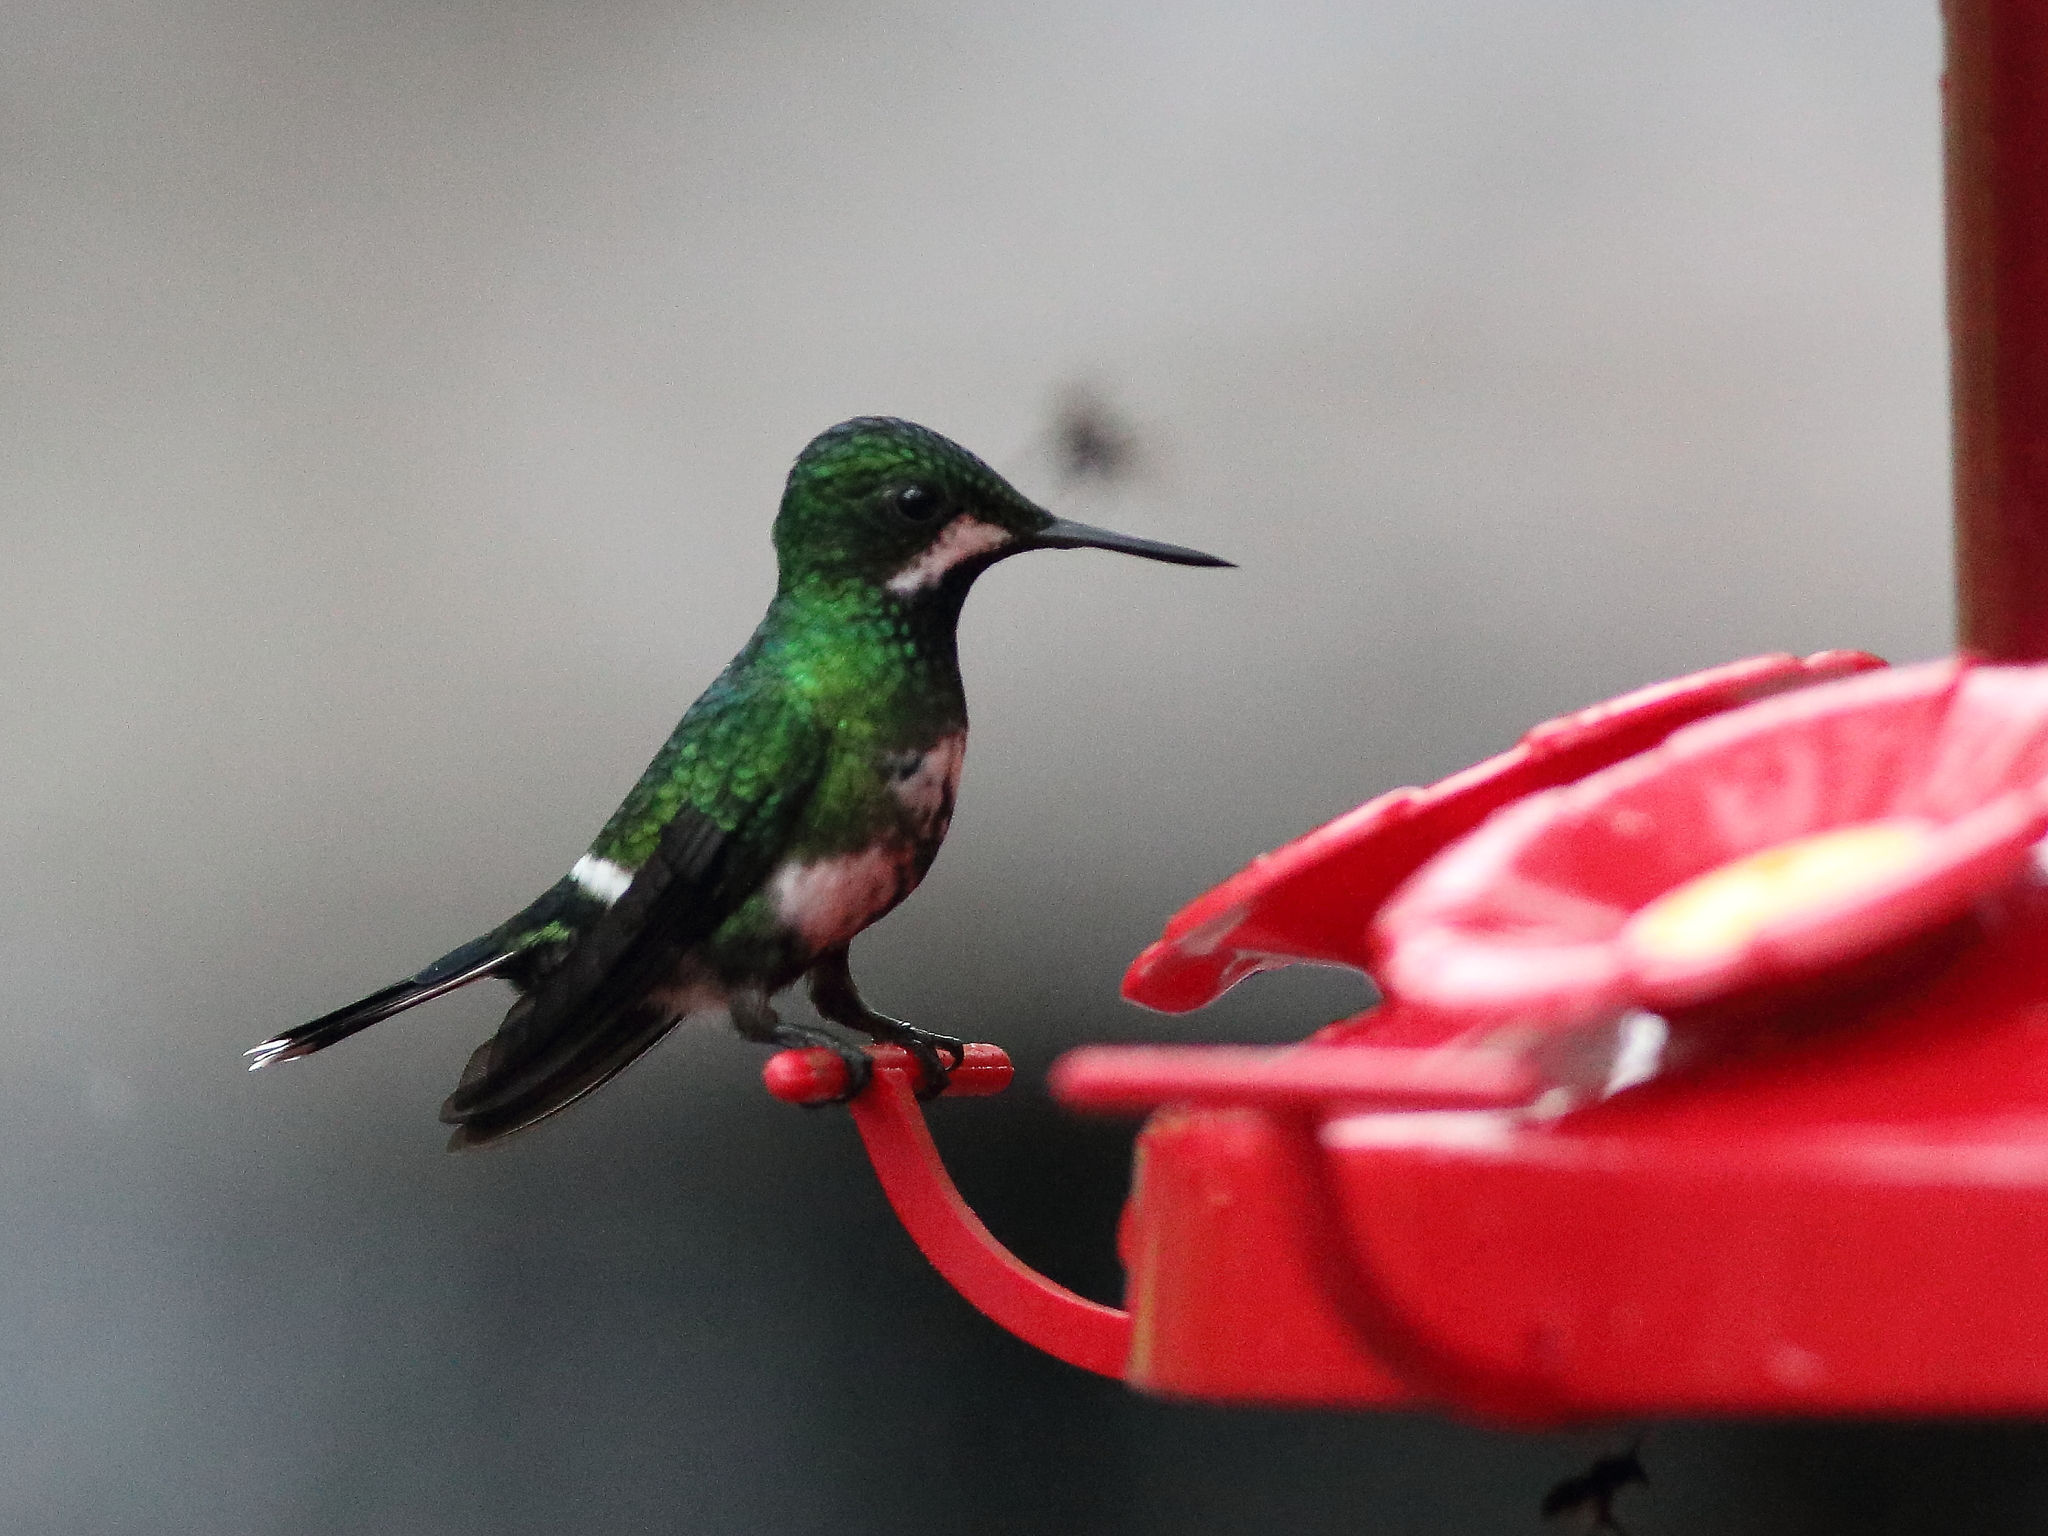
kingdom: Animalia
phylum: Chordata
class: Aves
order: Apodiformes
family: Trochilidae
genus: Discosura
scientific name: Discosura conversii
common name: Green thorntail
